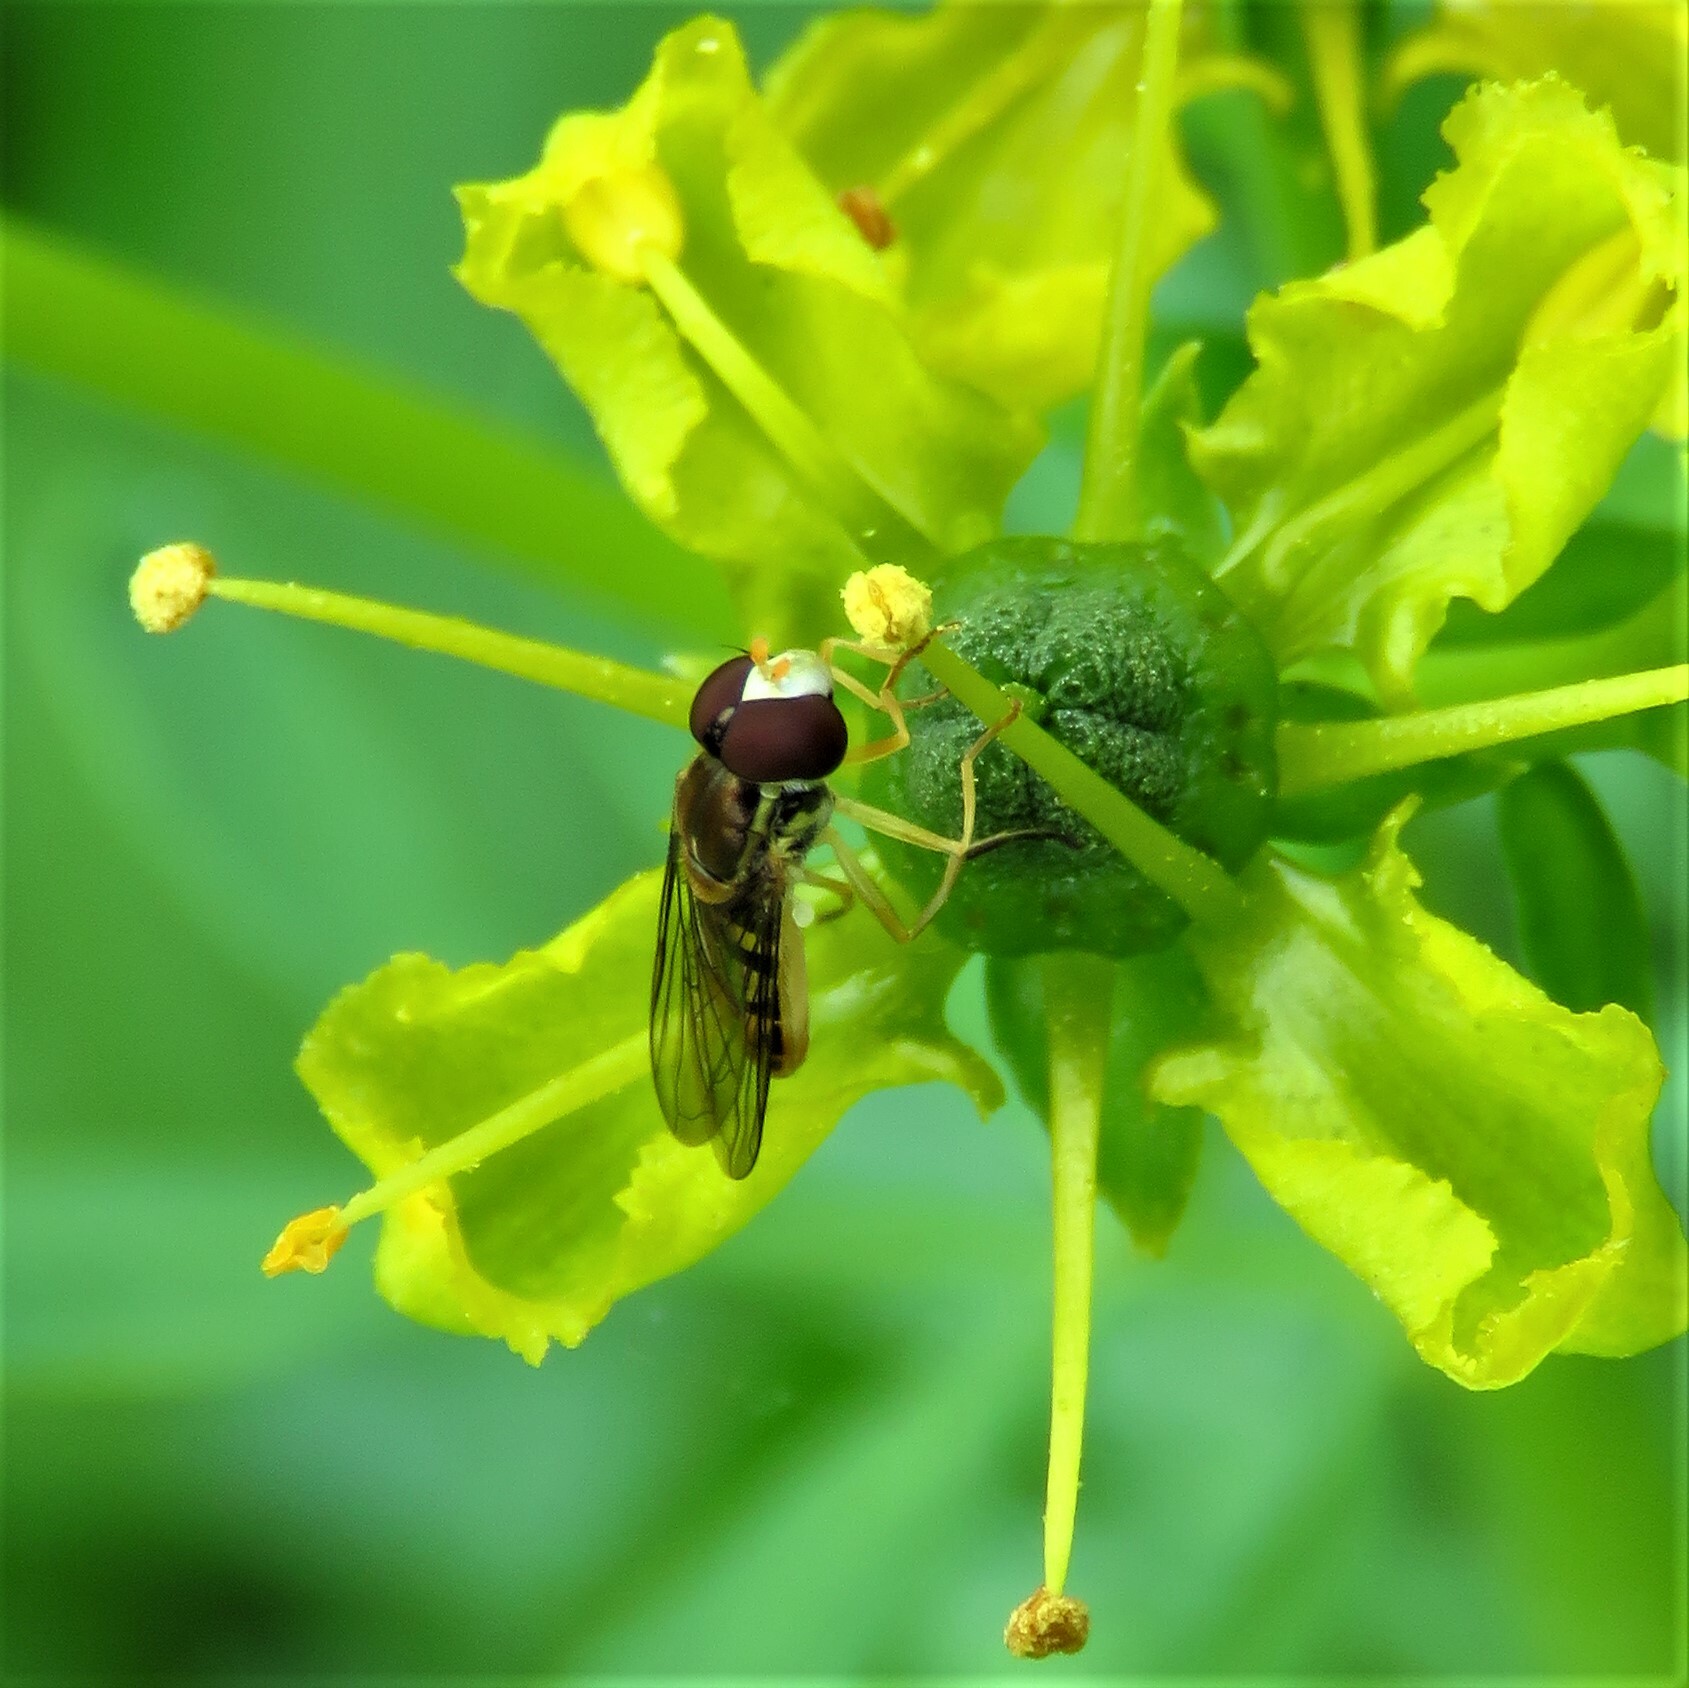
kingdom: Animalia
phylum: Arthropoda
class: Insecta
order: Diptera
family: Syrphidae
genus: Toxomerus
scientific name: Toxomerus marginatus
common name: Syrphid fly
